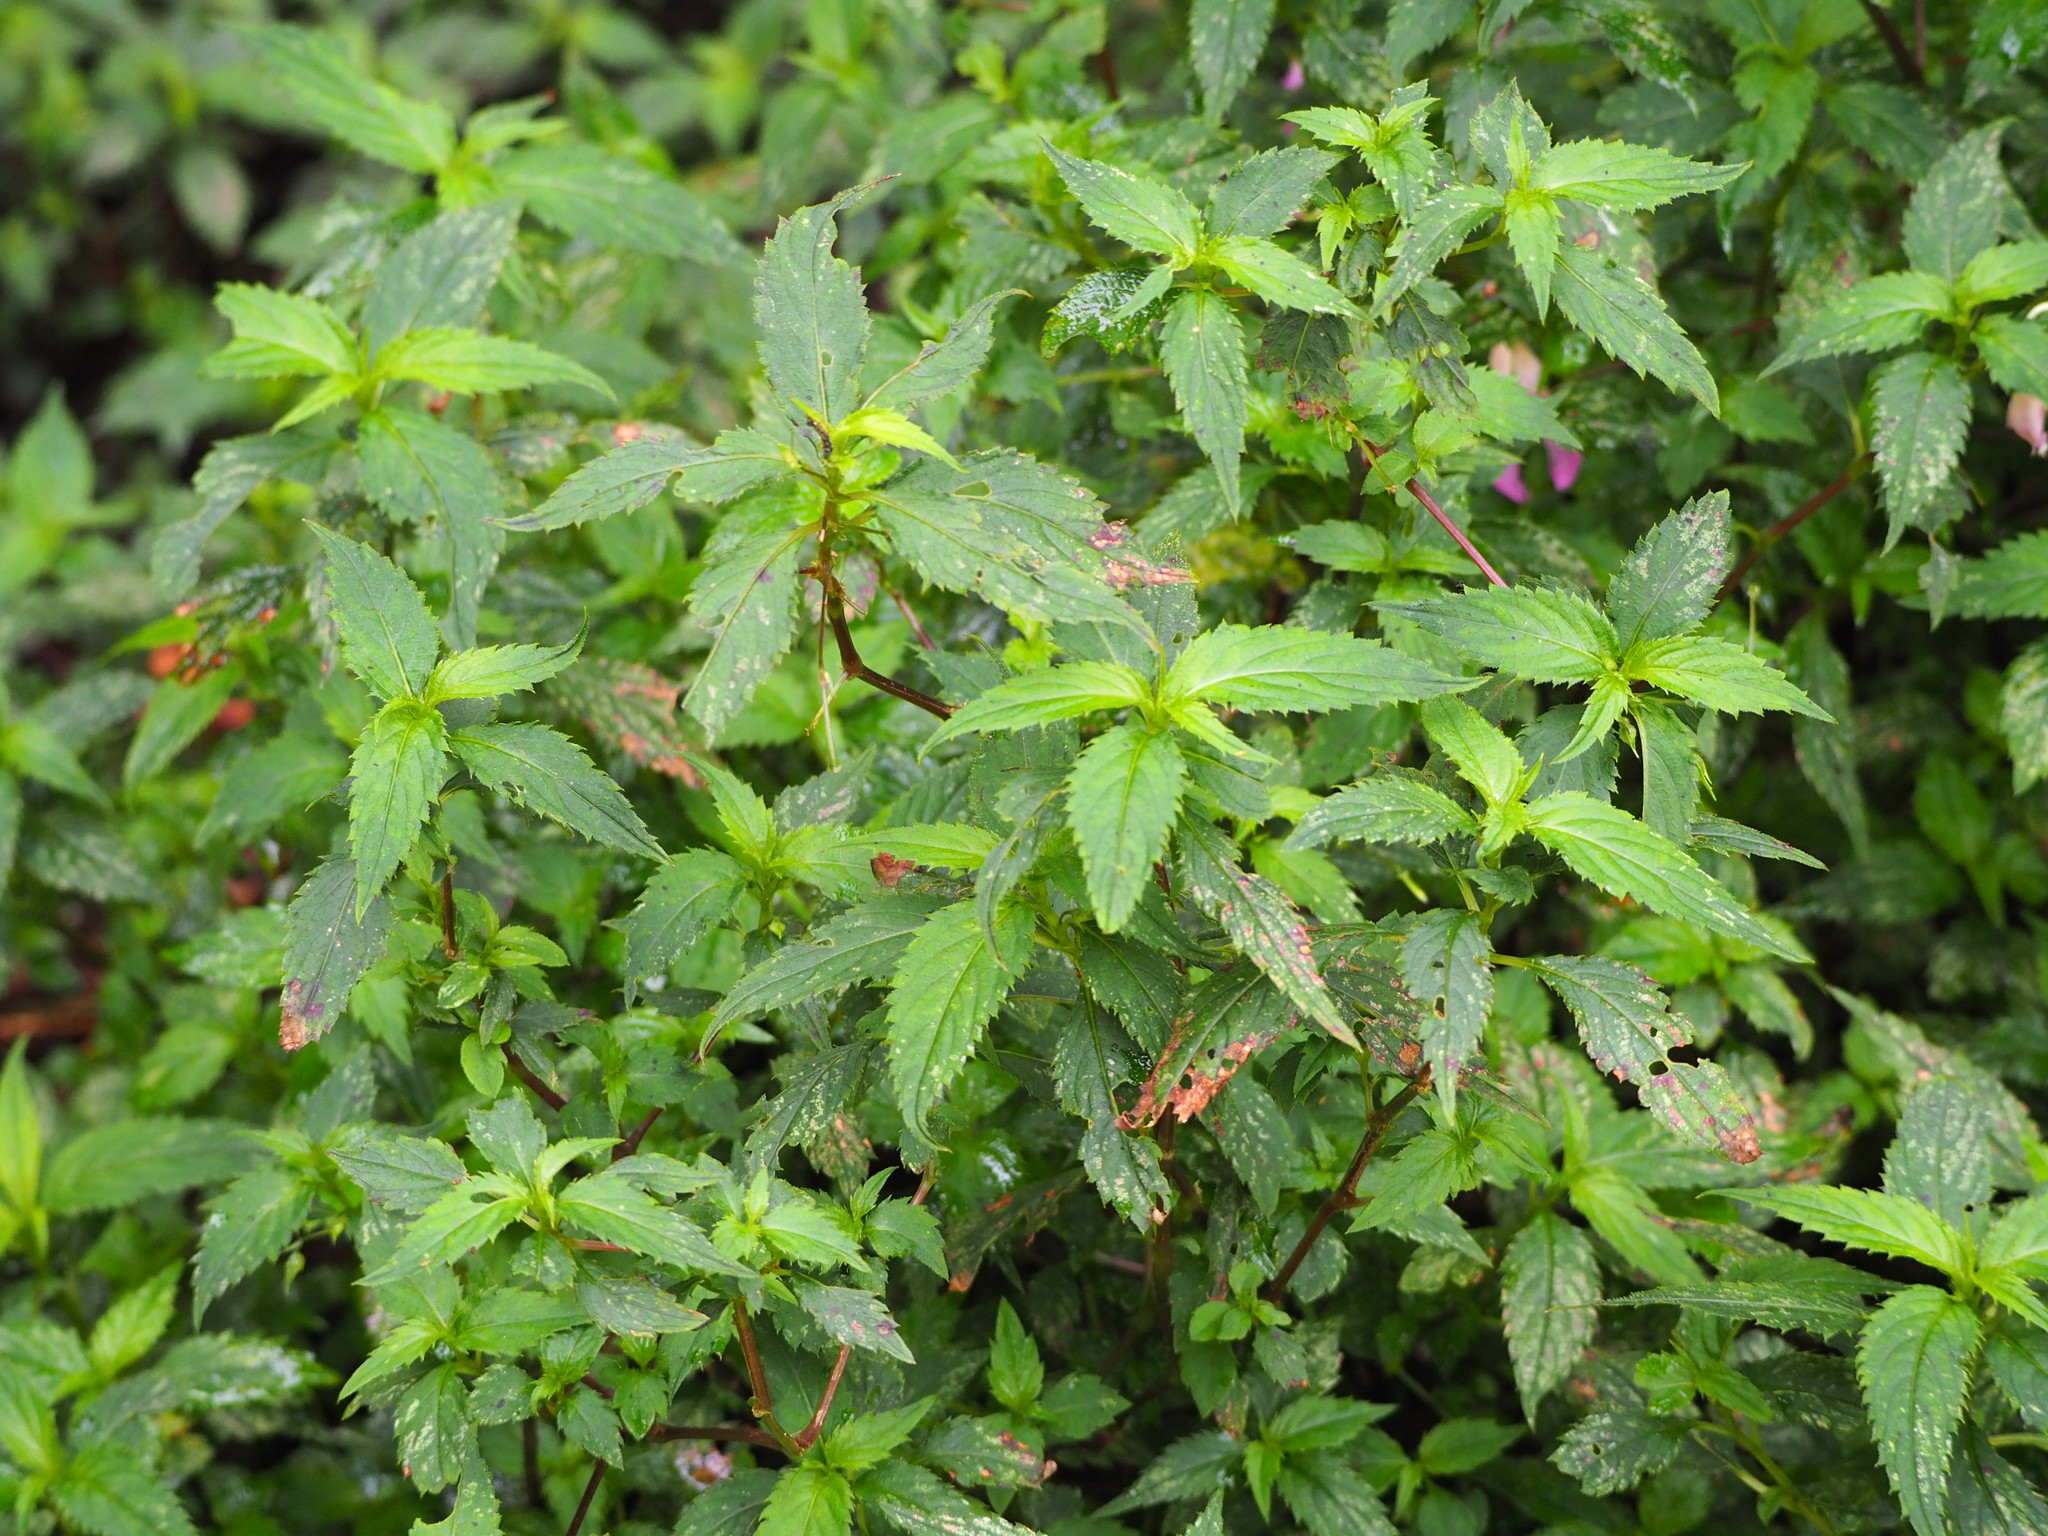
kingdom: Plantae
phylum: Tracheophyta
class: Magnoliopsida
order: Ericales
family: Balsaminaceae
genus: Impatiens
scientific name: Impatiens uniflora
